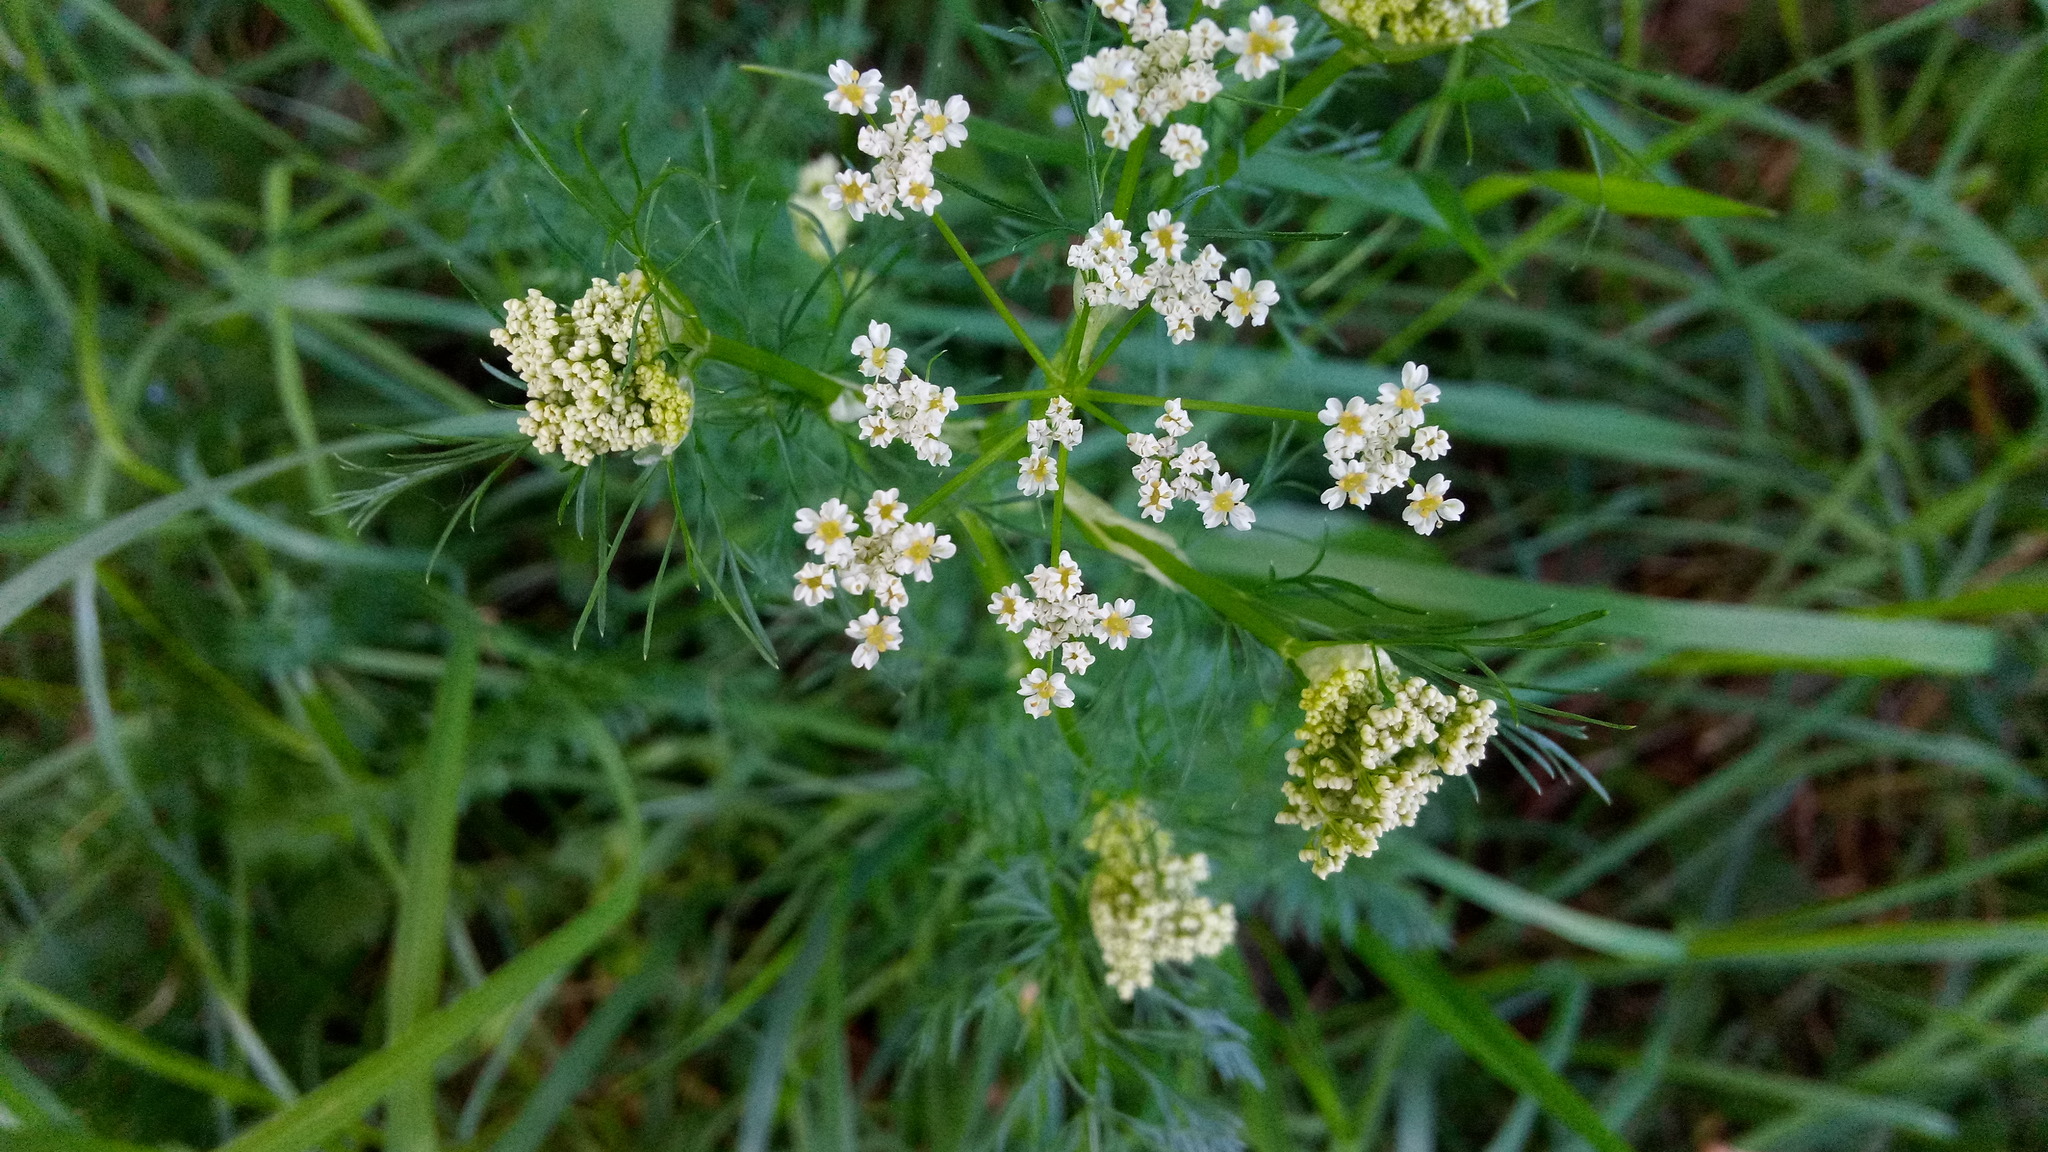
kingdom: Plantae
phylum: Tracheophyta
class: Magnoliopsida
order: Apiales
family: Apiaceae
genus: Carum
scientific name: Carum carvi
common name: Caraway
